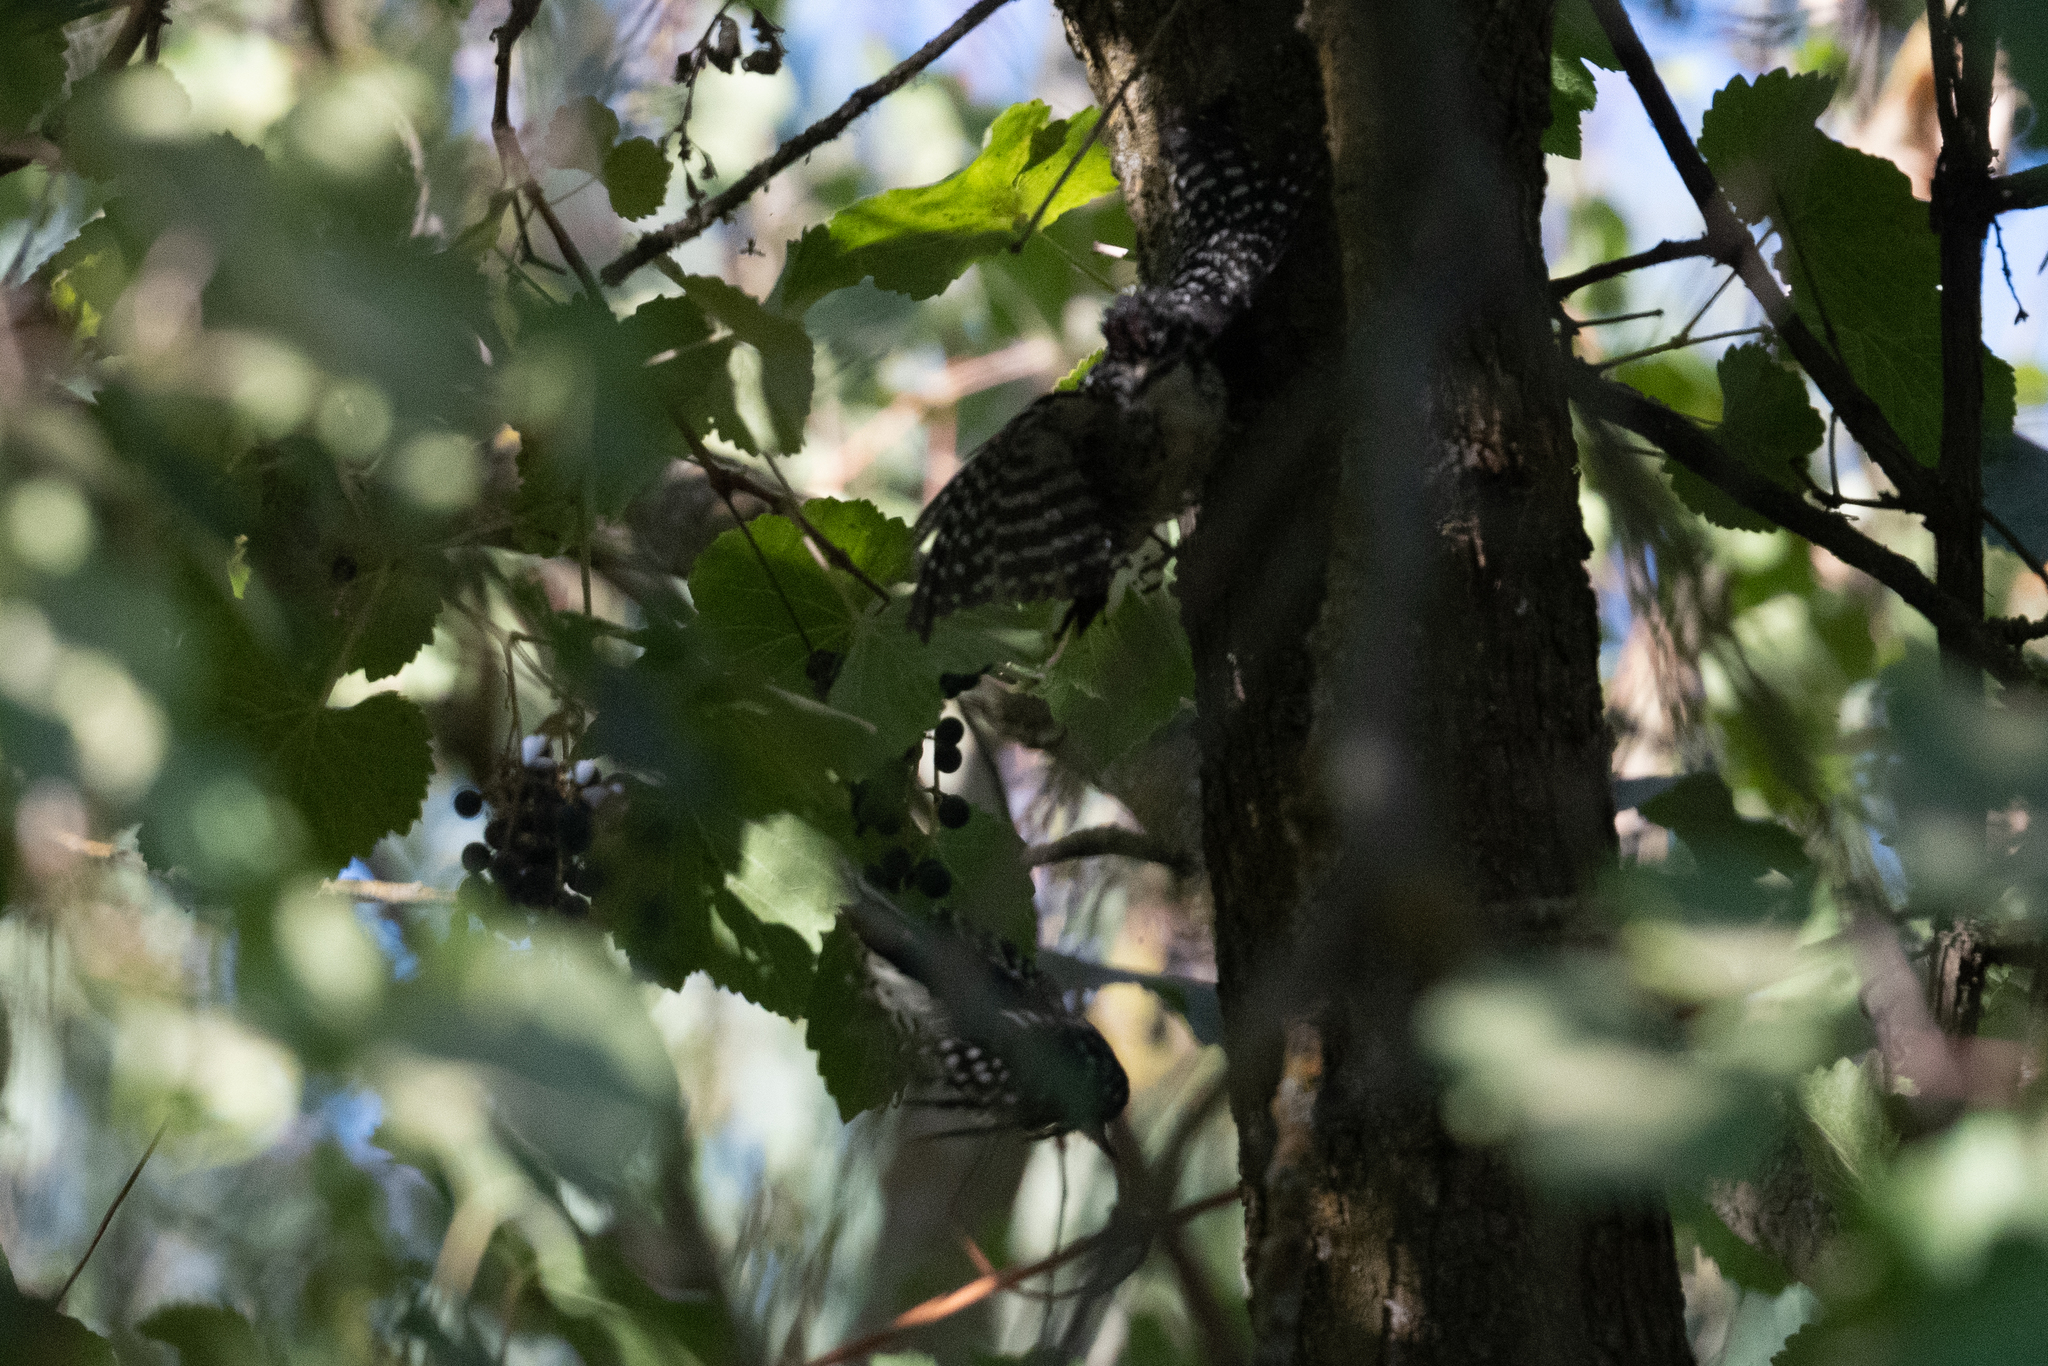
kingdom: Animalia
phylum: Chordata
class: Aves
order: Piciformes
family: Picidae
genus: Dryobates
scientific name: Dryobates nuttallii
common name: Nuttall's woodpecker
